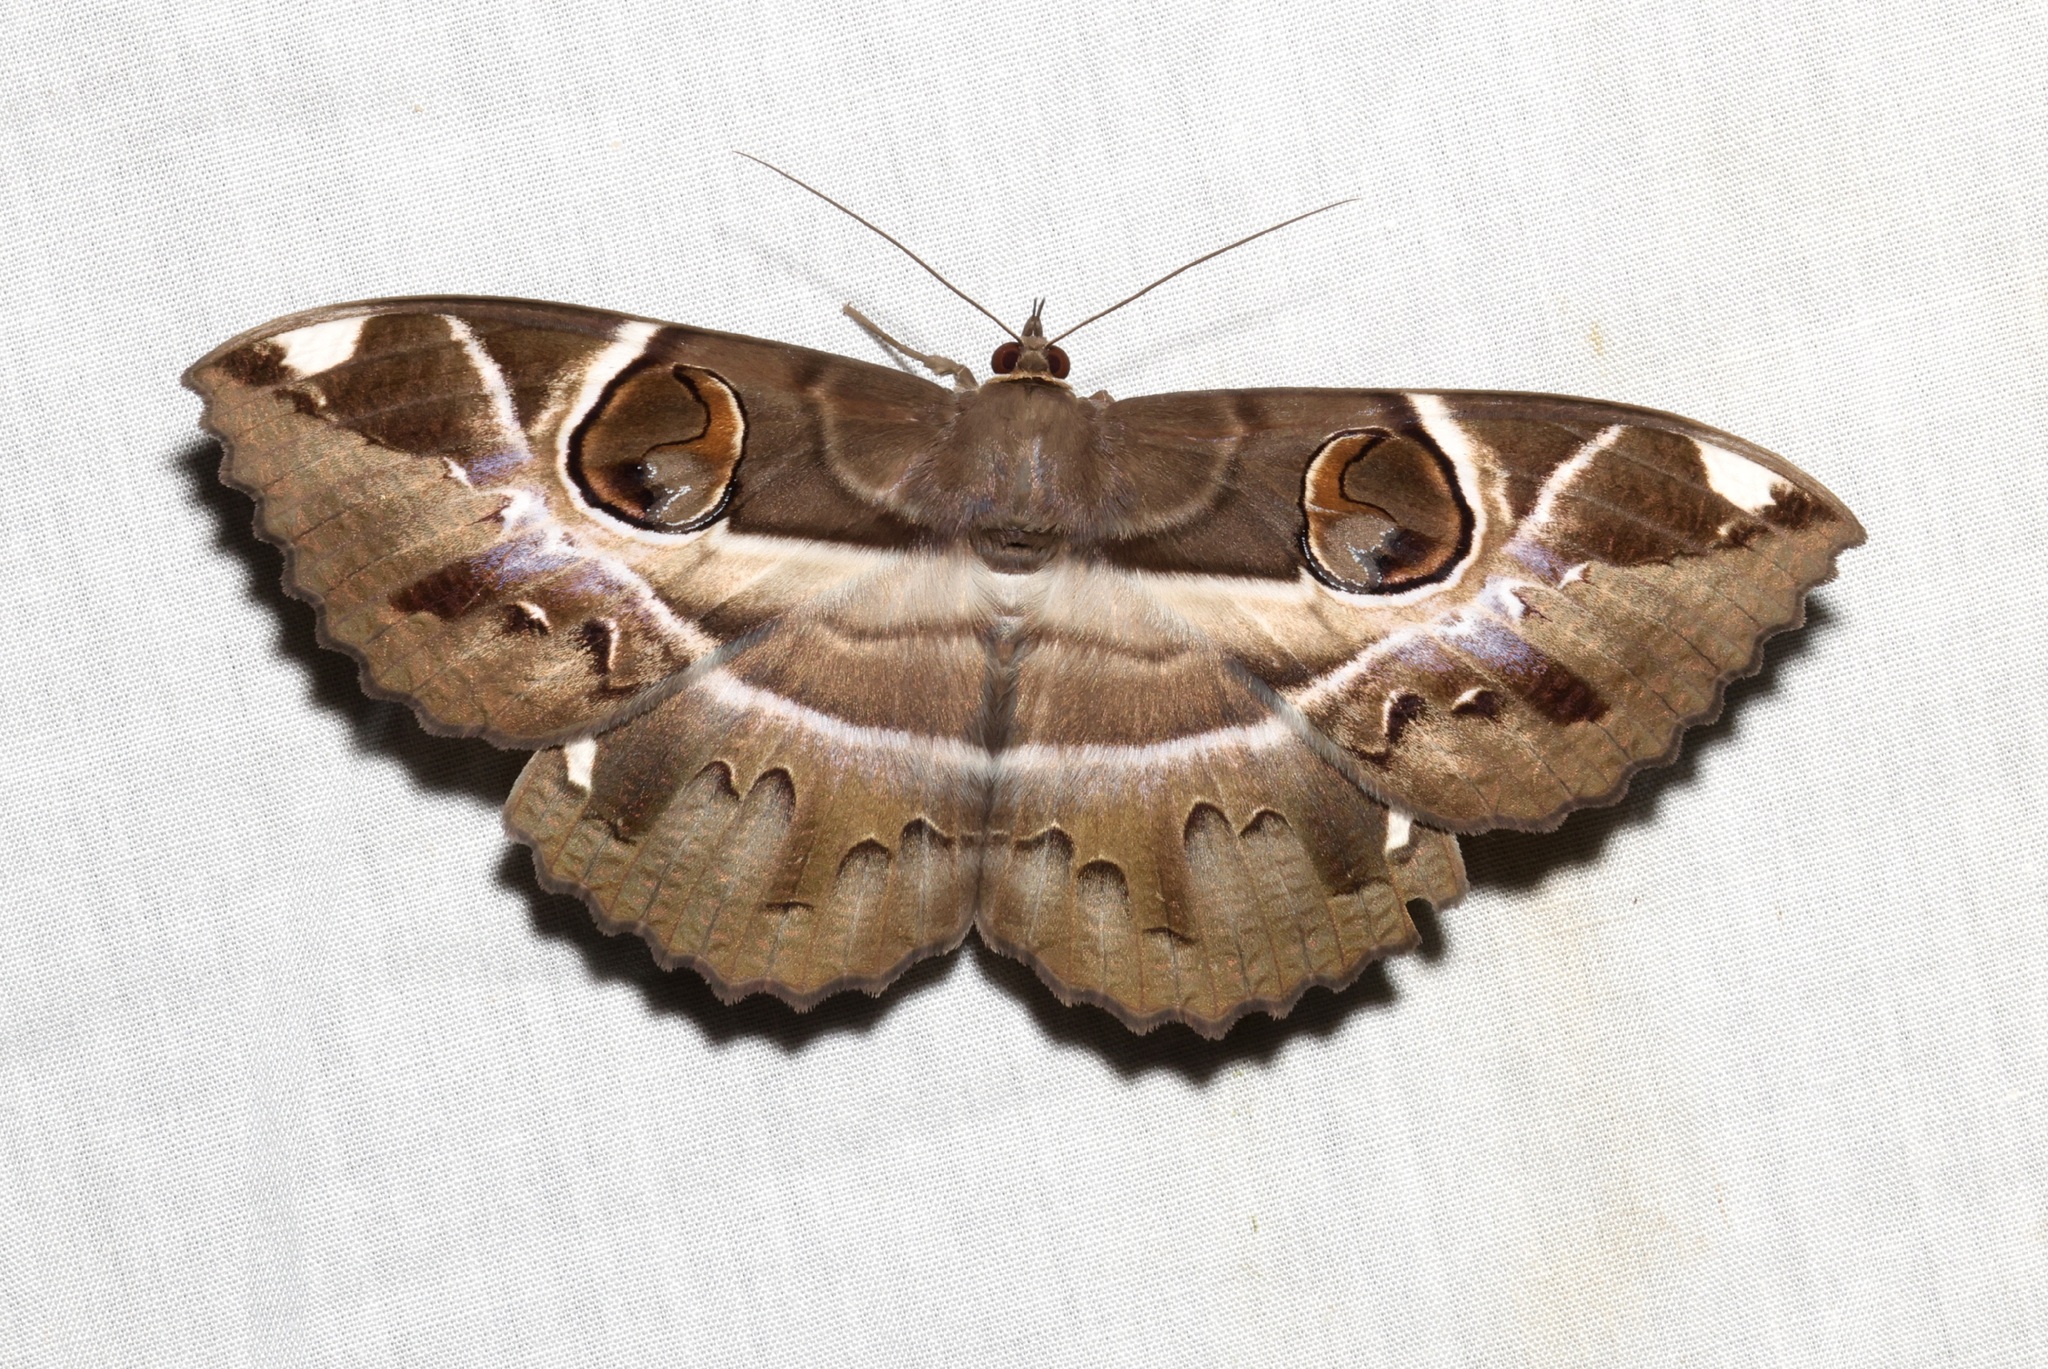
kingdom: Animalia
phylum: Arthropoda
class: Insecta
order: Lepidoptera
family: Erebidae
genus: Erebus
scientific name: Erebus ephesperis
